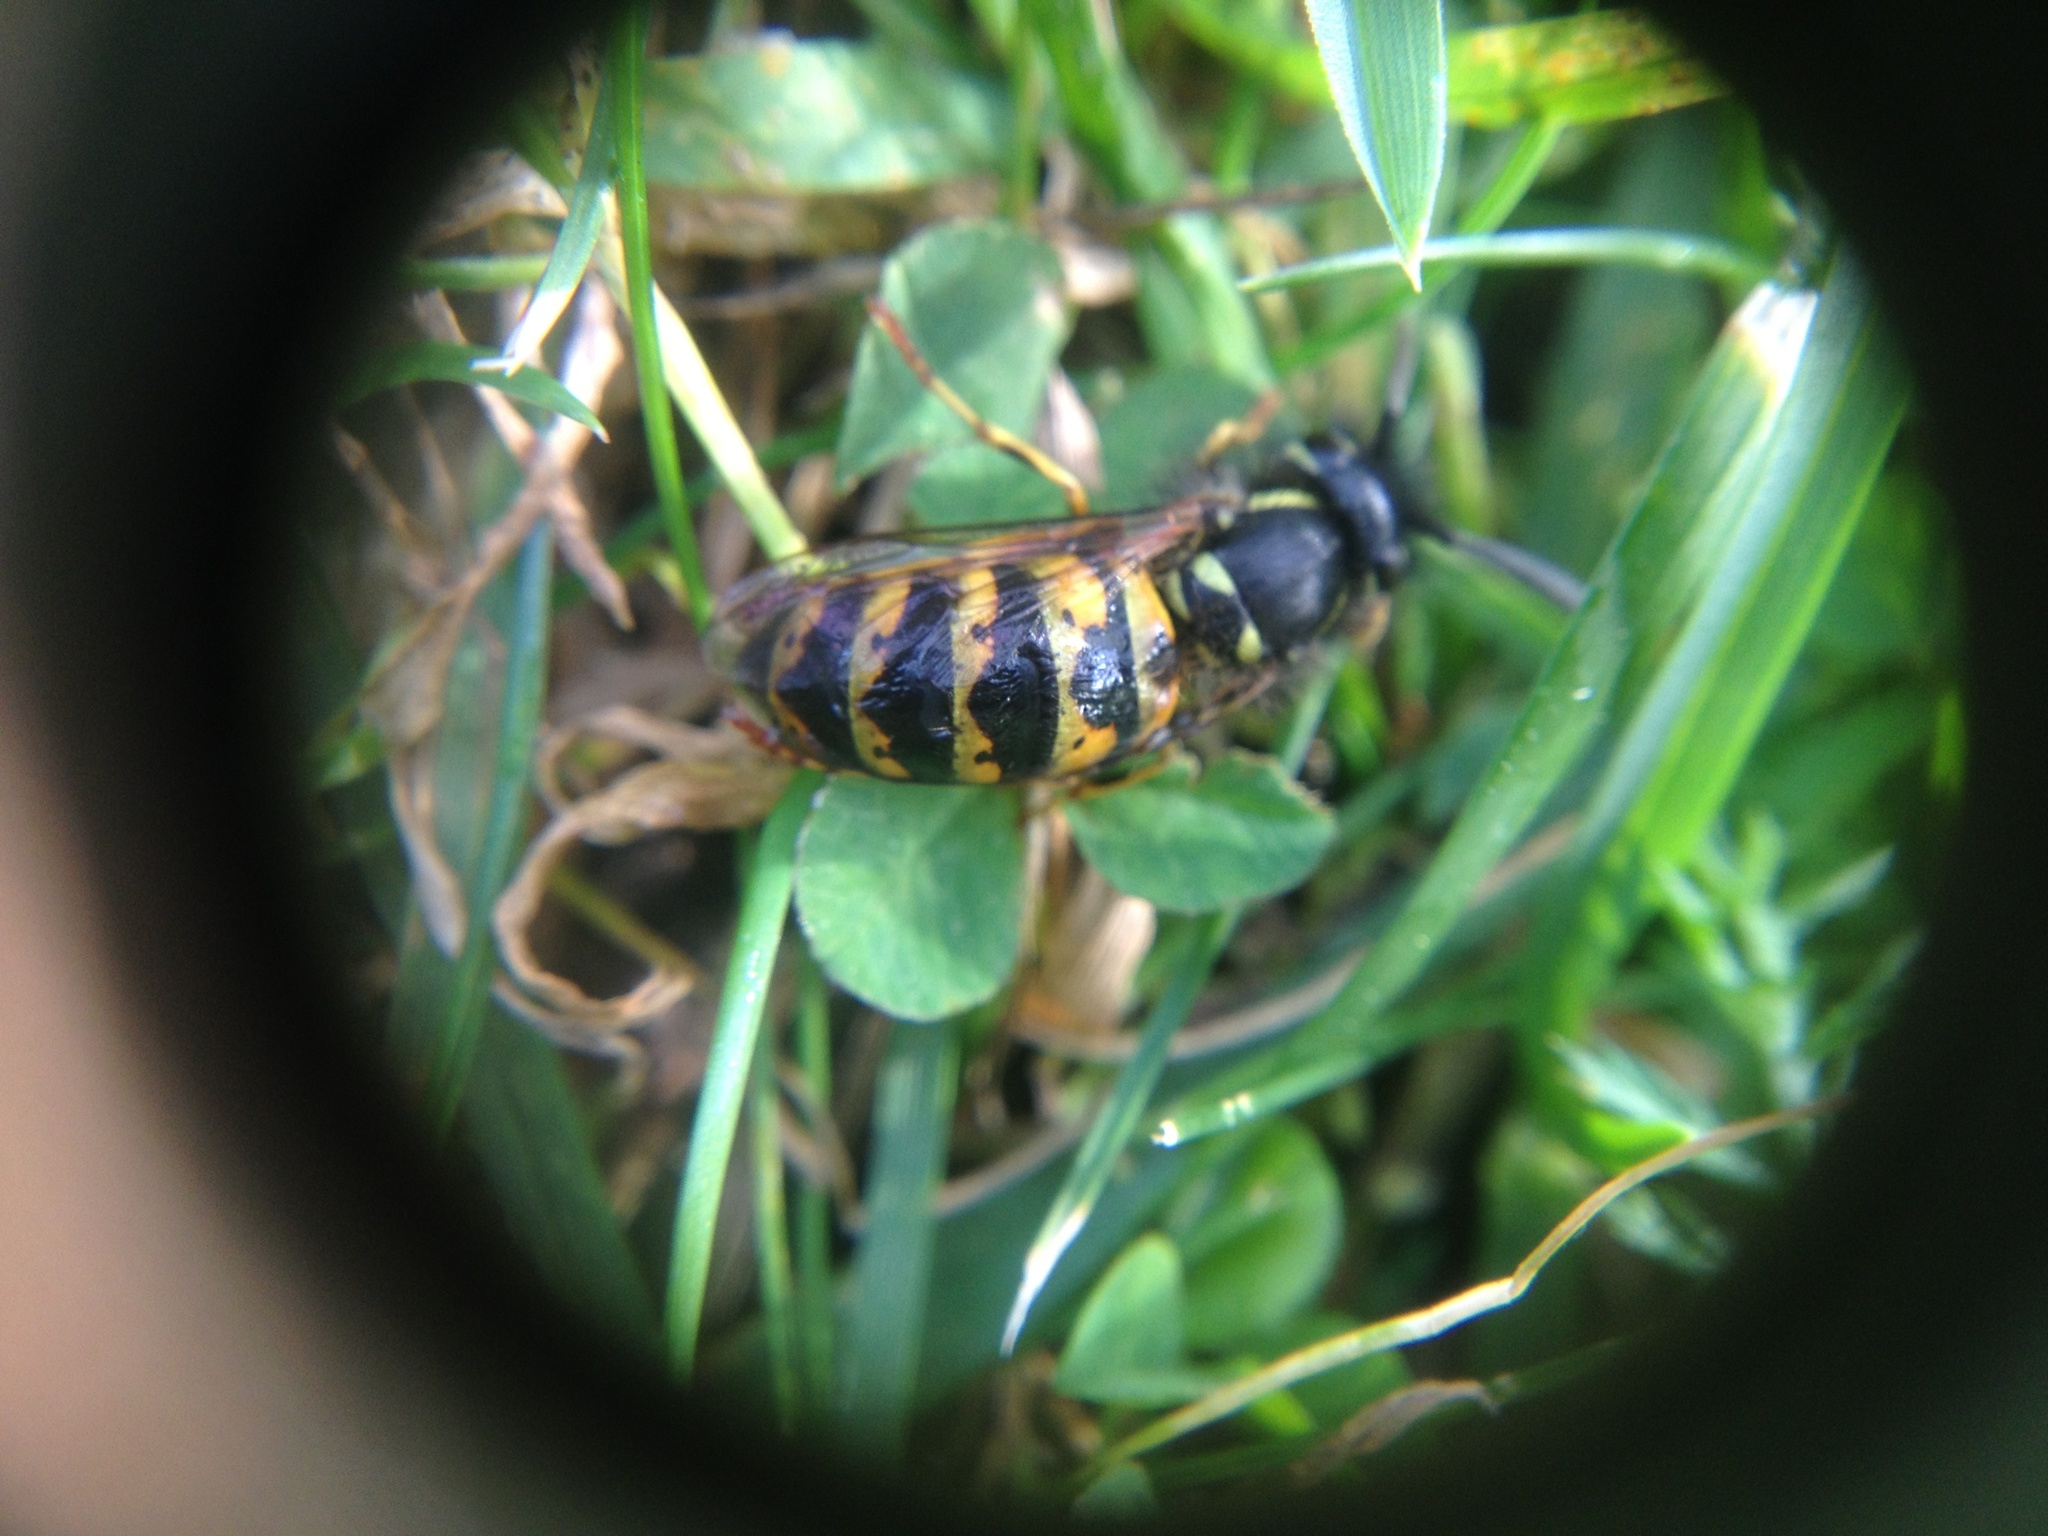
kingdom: Animalia
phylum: Arthropoda
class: Insecta
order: Hymenoptera
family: Vespidae
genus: Vespula
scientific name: Vespula vulgaris
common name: Common wasp
